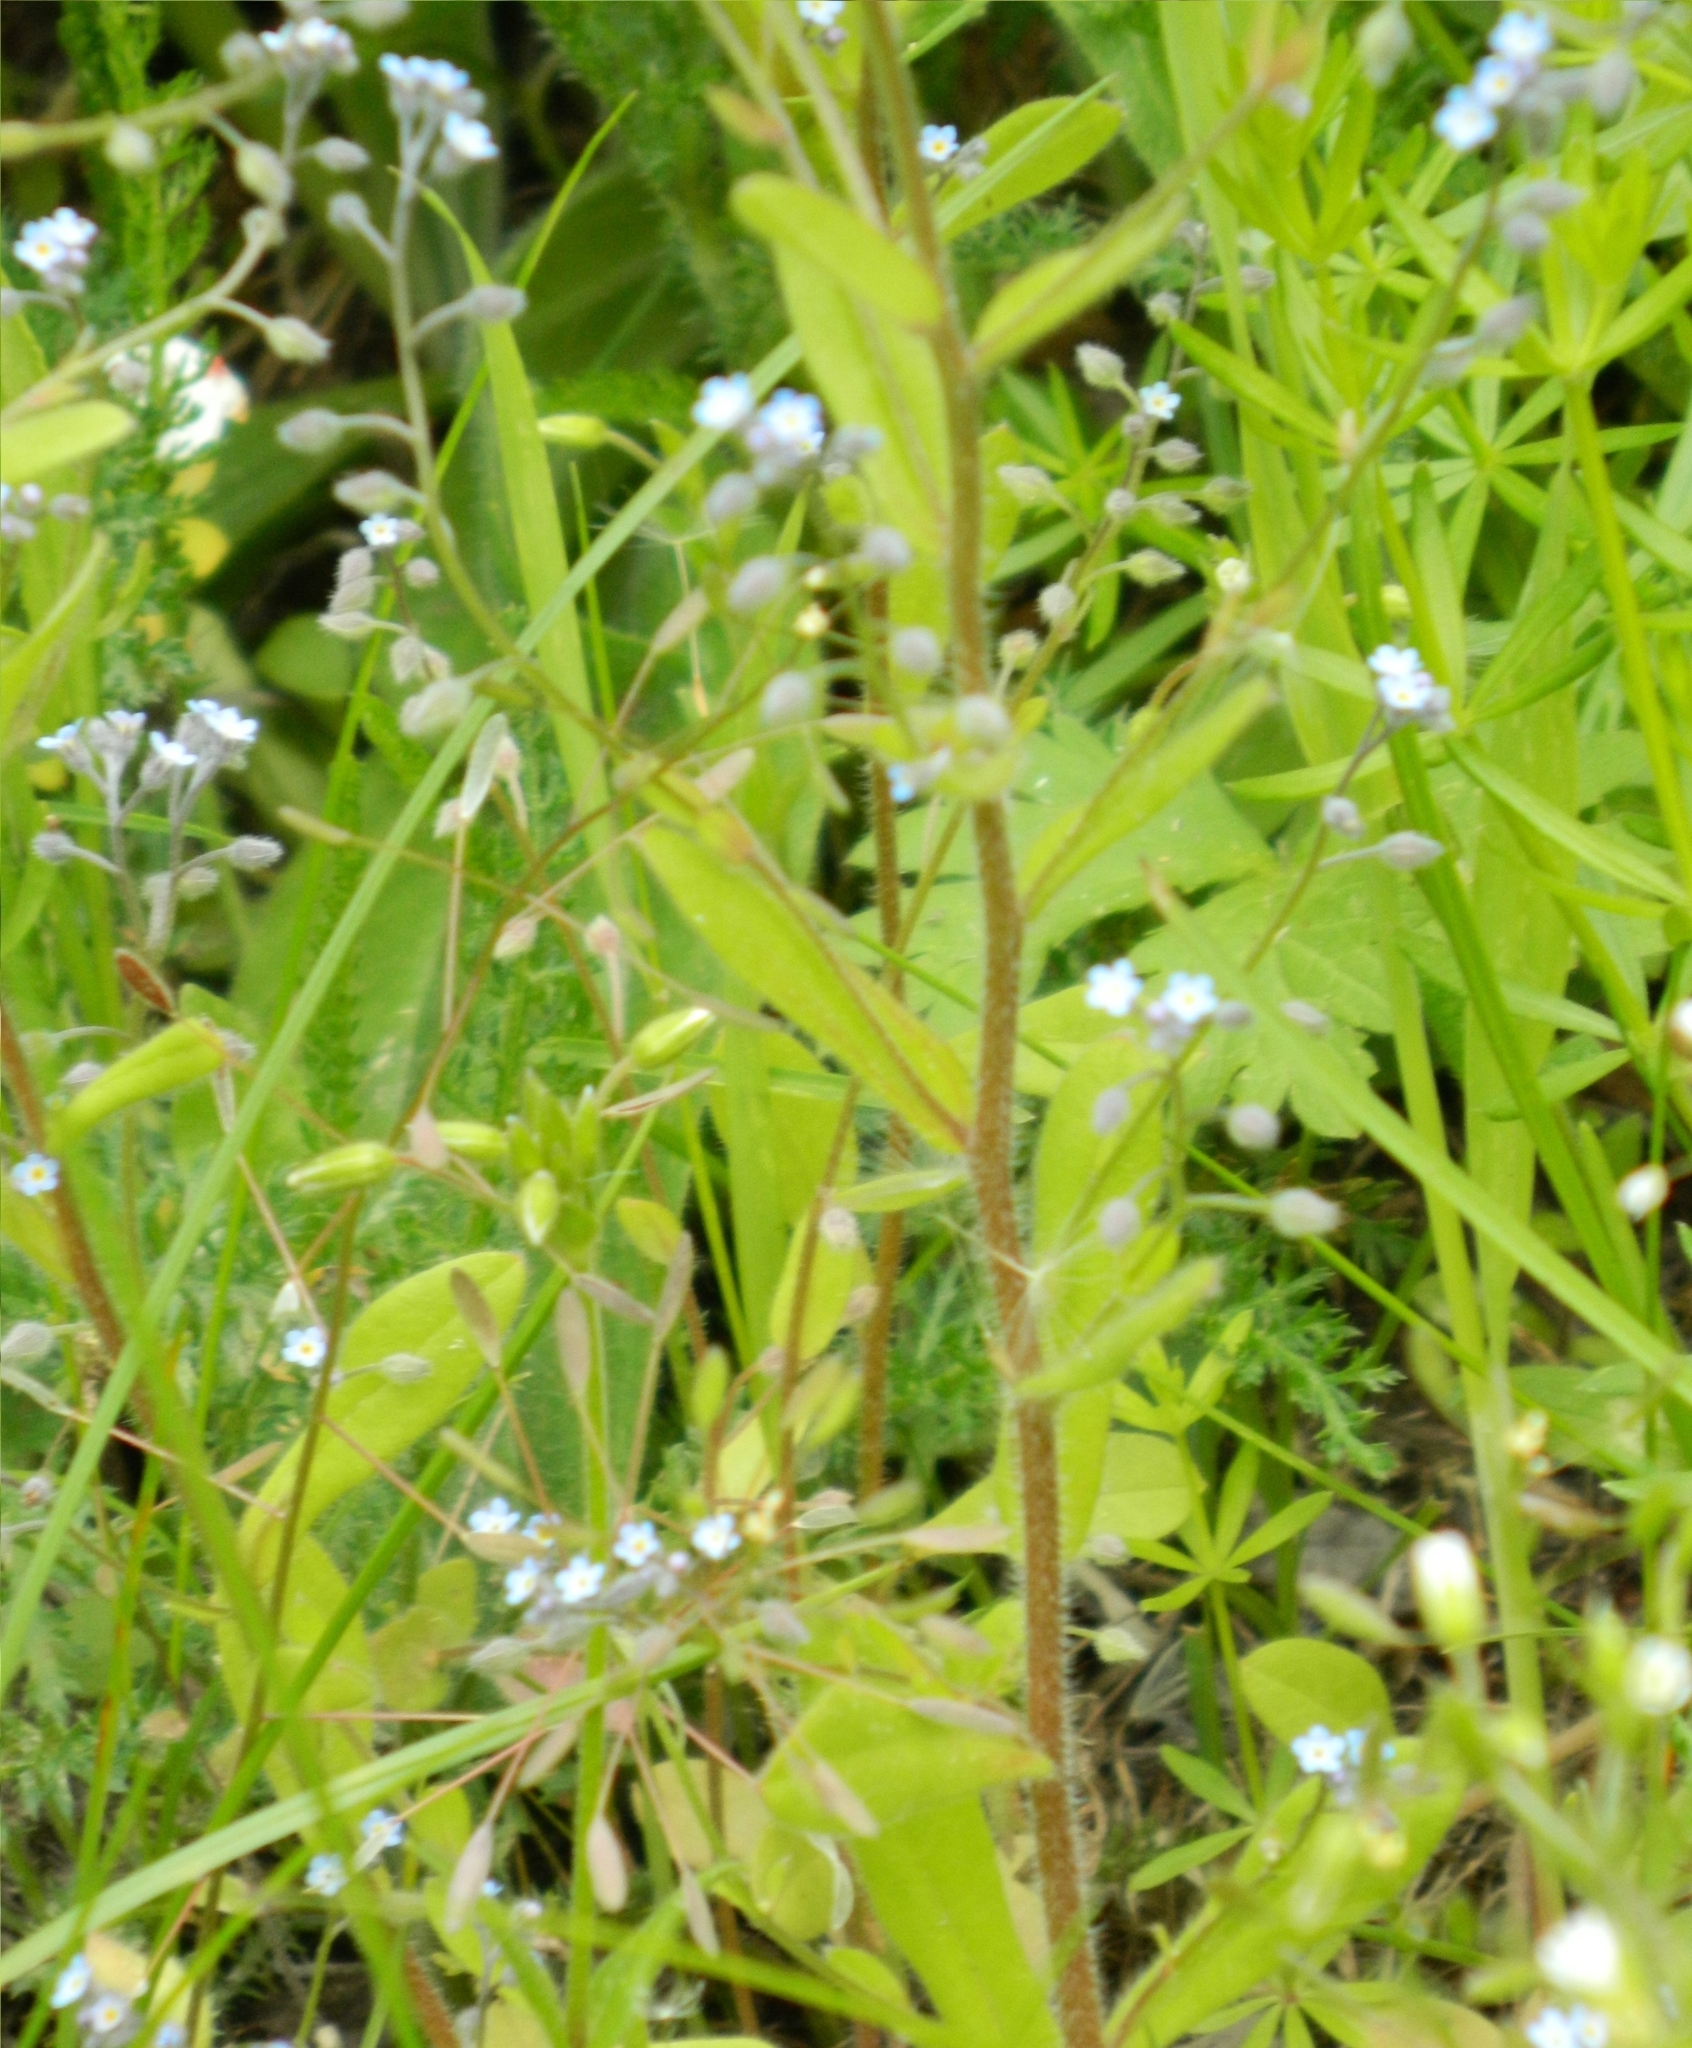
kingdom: Plantae
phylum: Tracheophyta
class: Magnoliopsida
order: Boraginales
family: Boraginaceae
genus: Myosotis
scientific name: Myosotis arvensis
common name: Field forget-me-not
